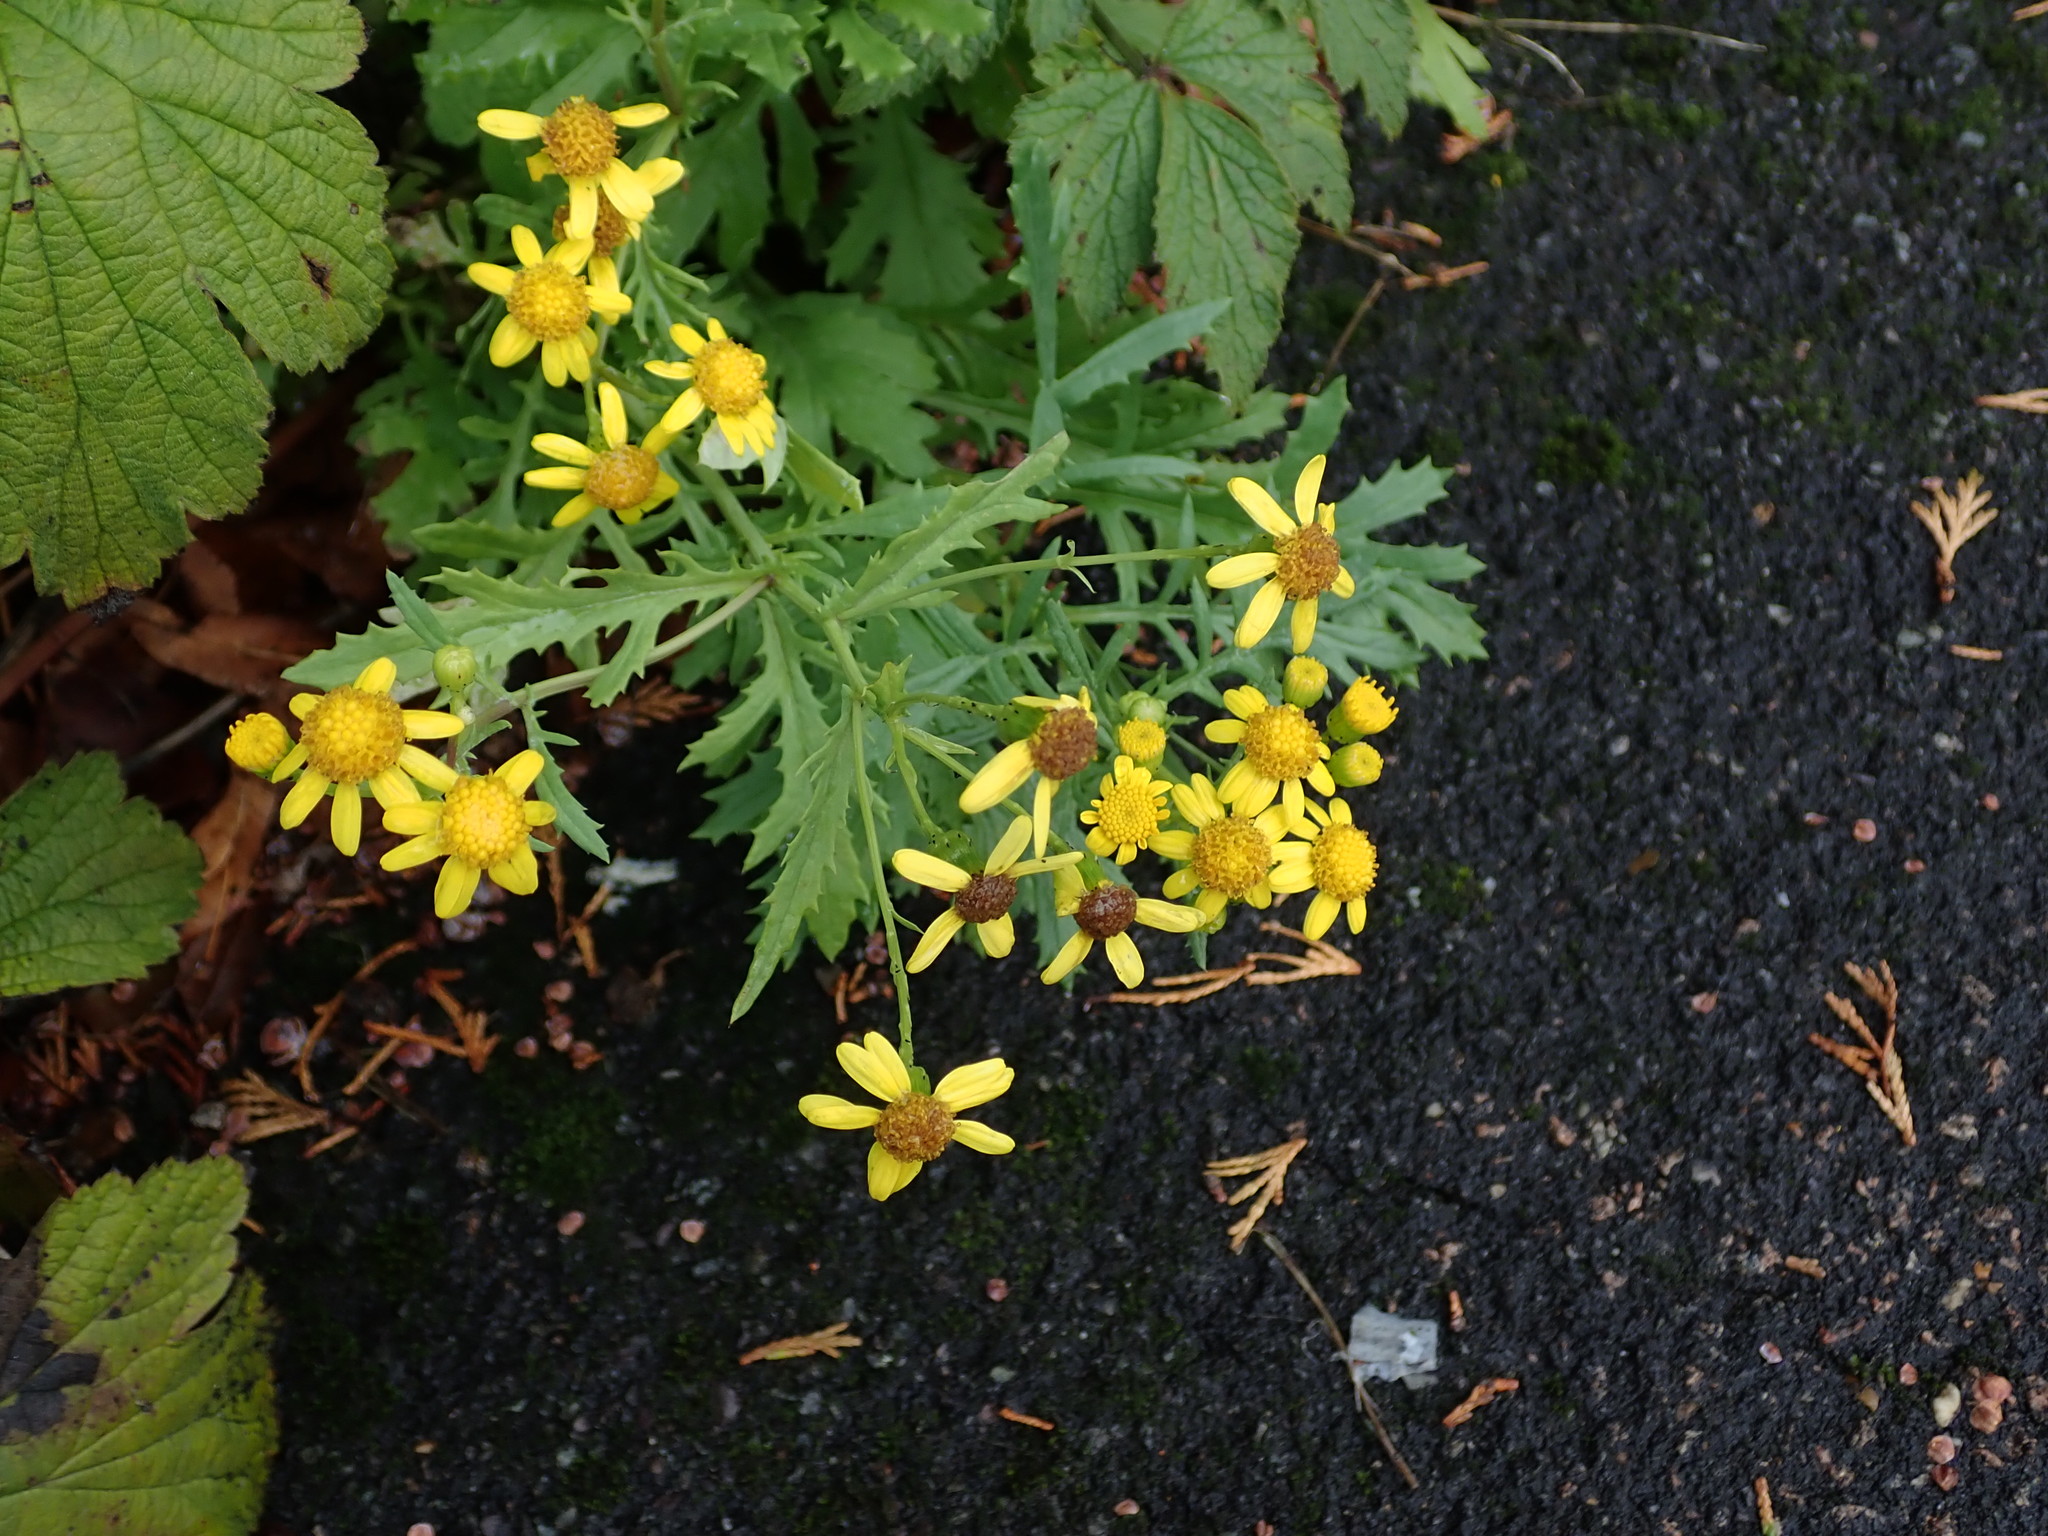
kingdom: Plantae
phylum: Tracheophyta
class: Magnoliopsida
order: Asterales
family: Asteraceae
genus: Senecio
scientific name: Senecio squalidus
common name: Oxford ragwort
